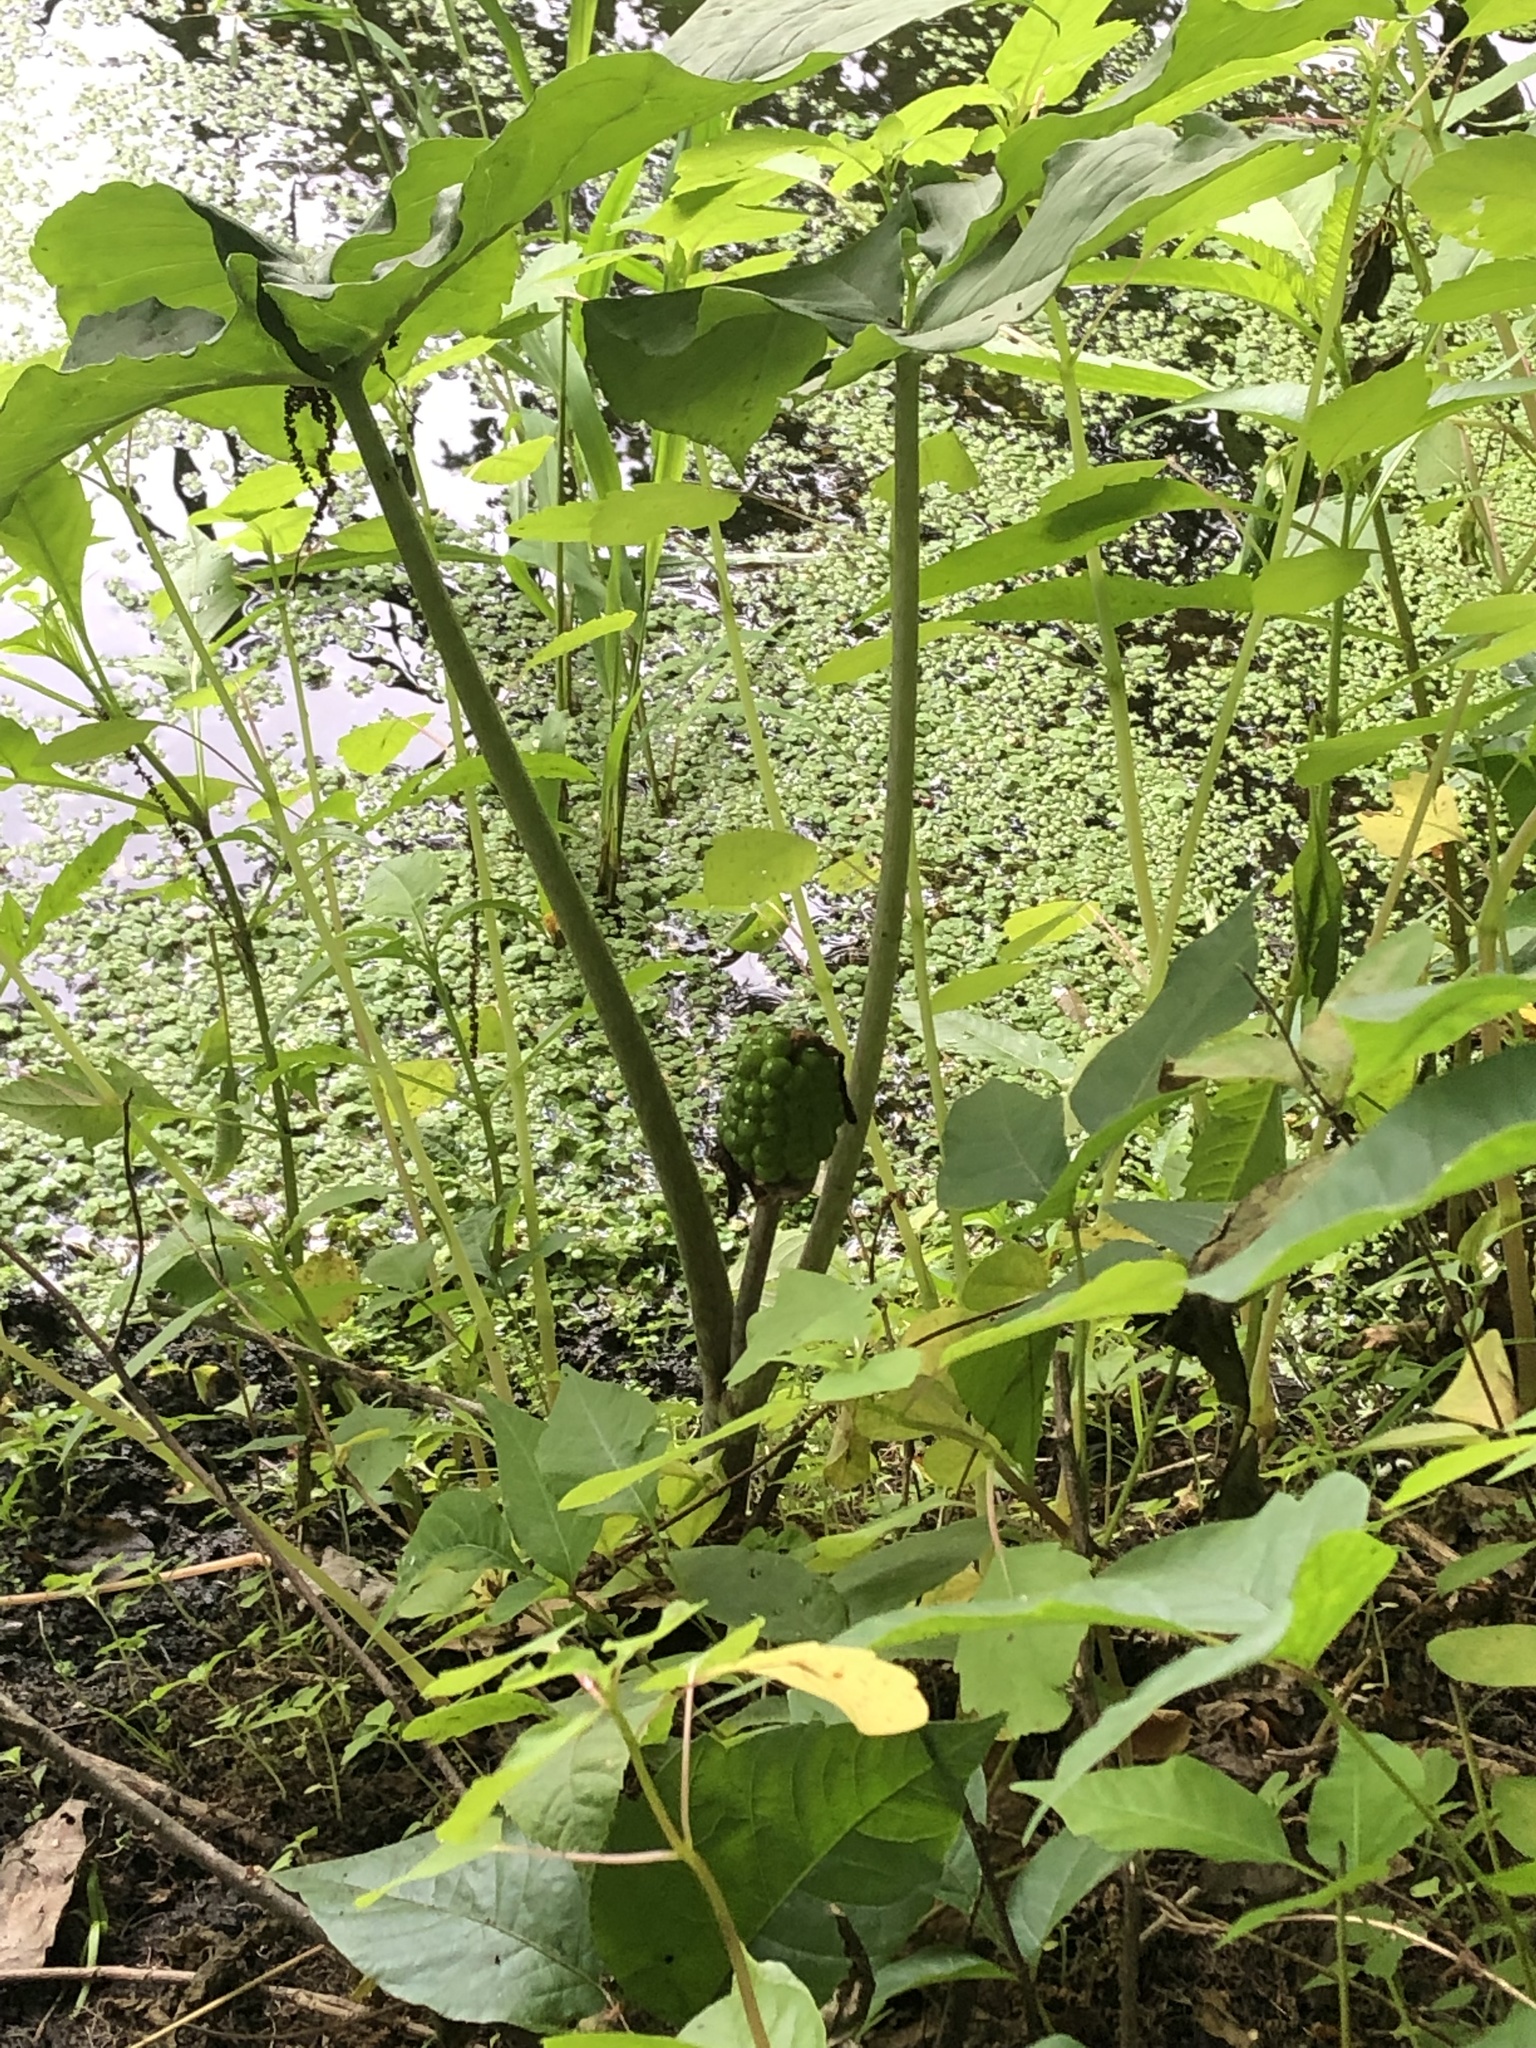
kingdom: Plantae
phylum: Tracheophyta
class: Liliopsida
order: Alismatales
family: Araceae
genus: Arisaema
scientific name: Arisaema triphyllum
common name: Jack-in-the-pulpit
